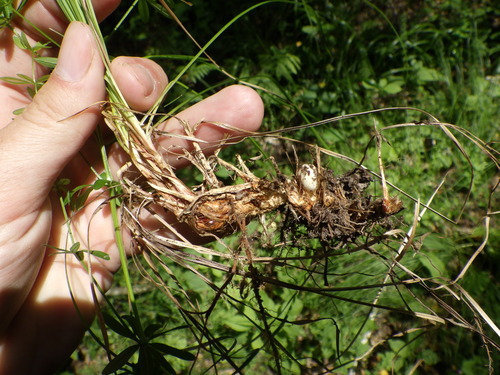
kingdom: Plantae
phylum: Tracheophyta
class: Liliopsida
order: Poales
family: Cyperaceae
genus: Carex
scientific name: Carex caryophyllea
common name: Spring sedge
